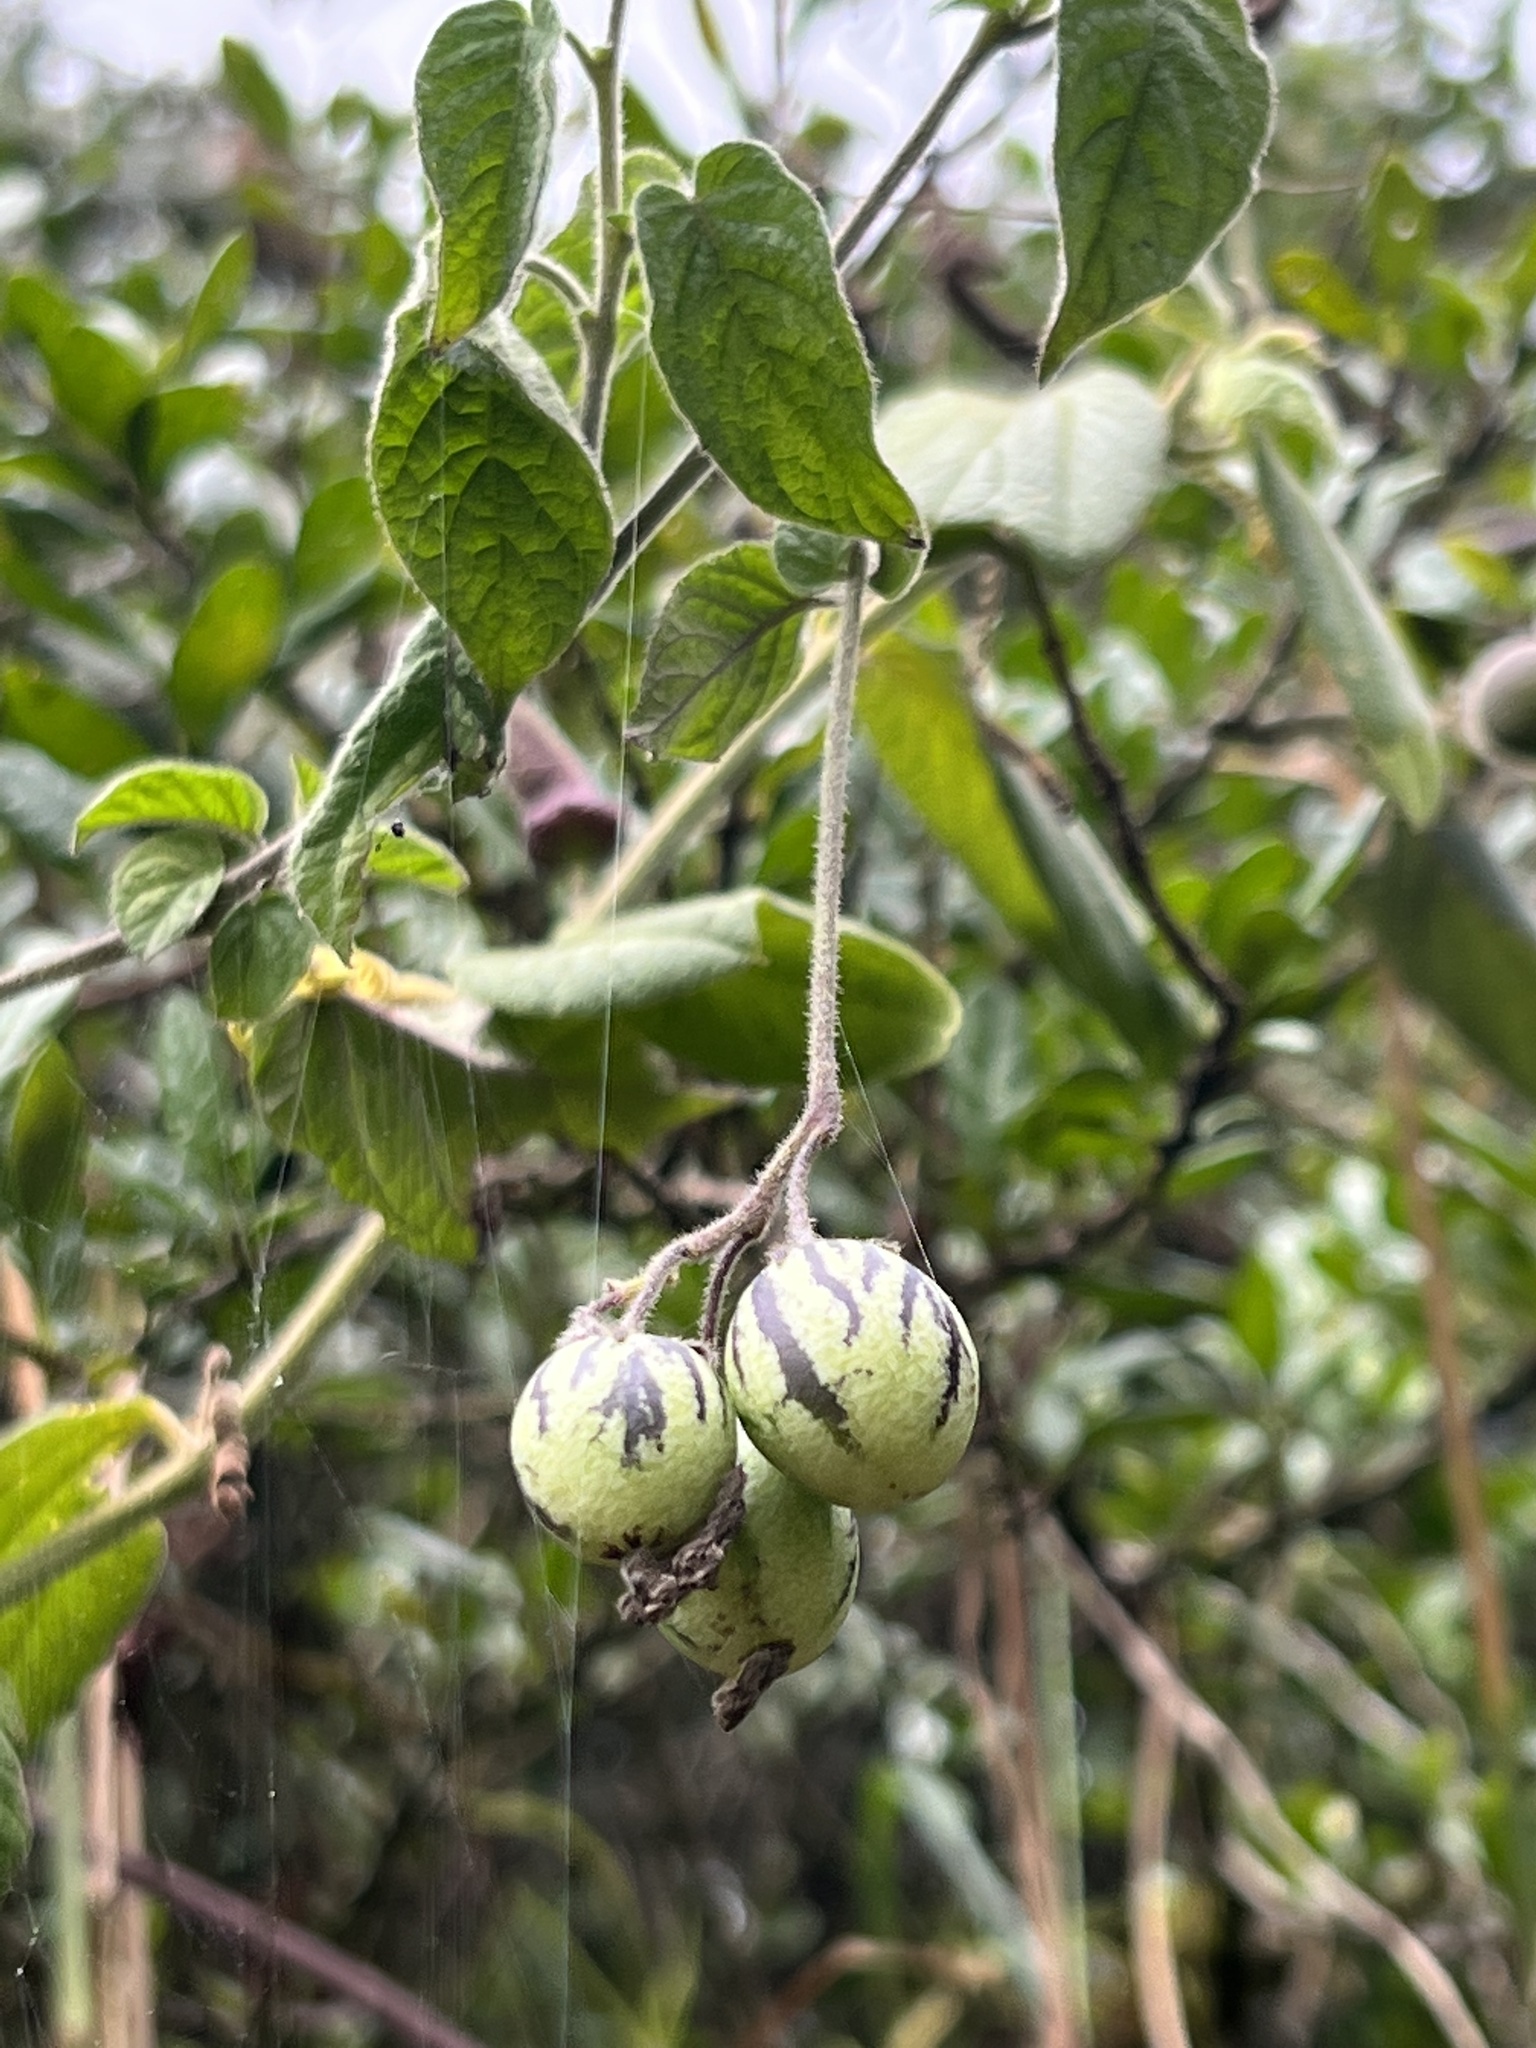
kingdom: Plantae
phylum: Tracheophyta
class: Magnoliopsida
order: Solanales
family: Solanaceae
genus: Solanum
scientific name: Solanum caripense
